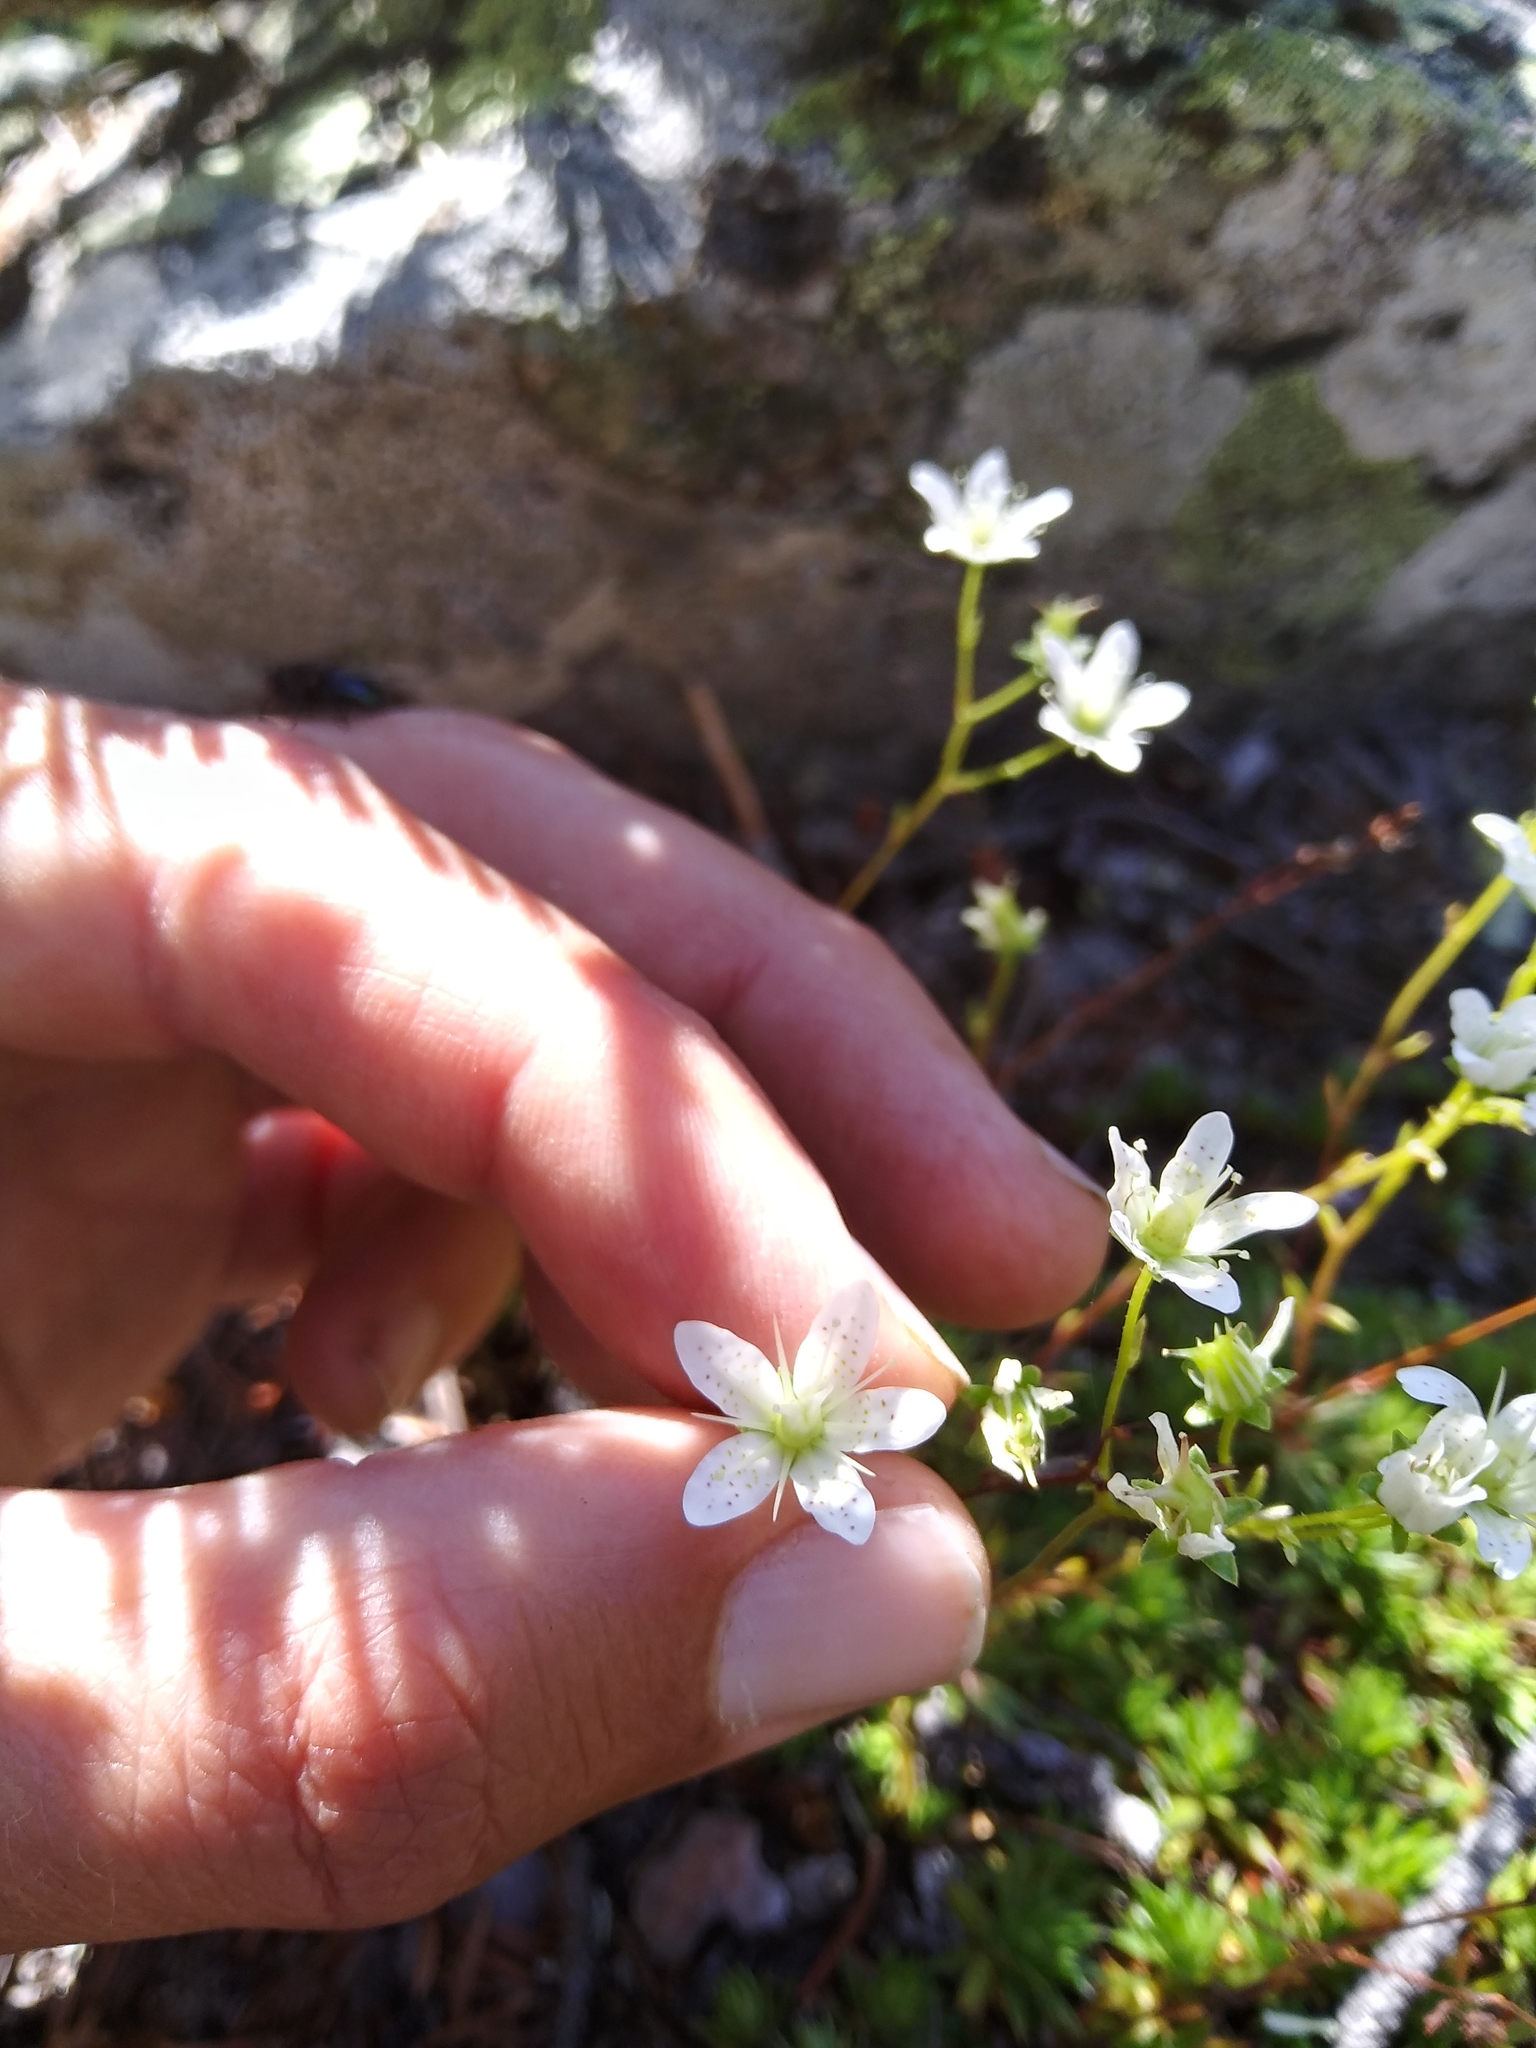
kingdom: Plantae
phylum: Tracheophyta
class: Magnoliopsida
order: Saxifragales
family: Saxifragaceae
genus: Saxifraga
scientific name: Saxifraga bronchialis
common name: Matted saxifrage
